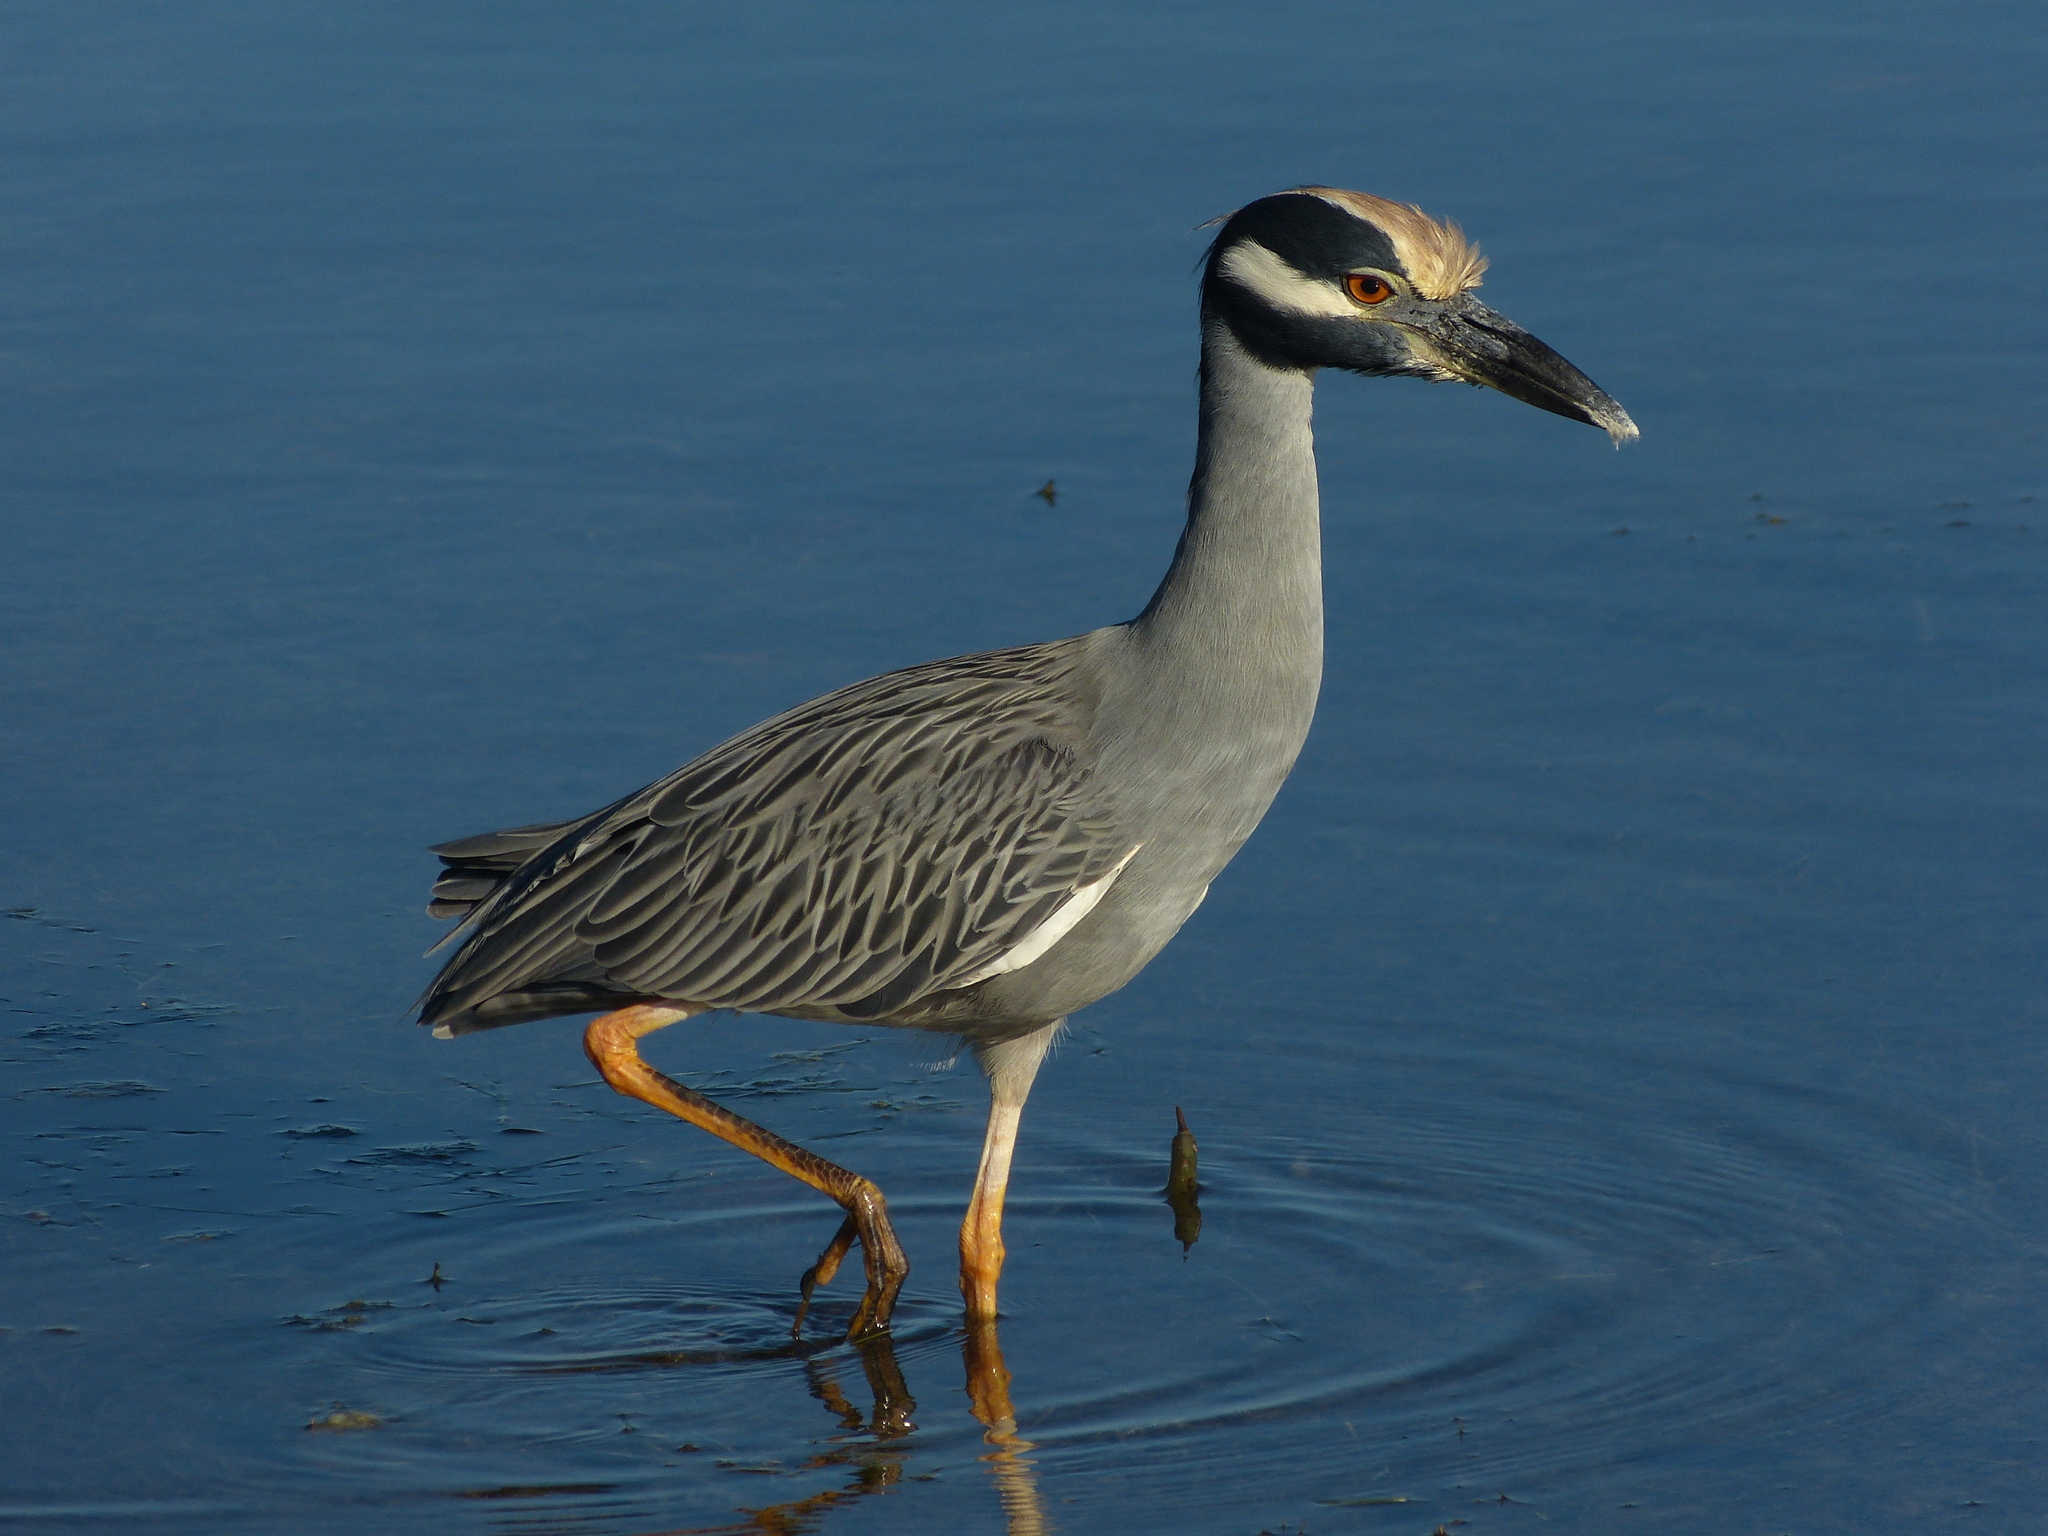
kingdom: Animalia
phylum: Chordata
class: Aves
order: Pelecaniformes
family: Ardeidae
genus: Nyctanassa
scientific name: Nyctanassa violacea
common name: Yellow-crowned night heron
